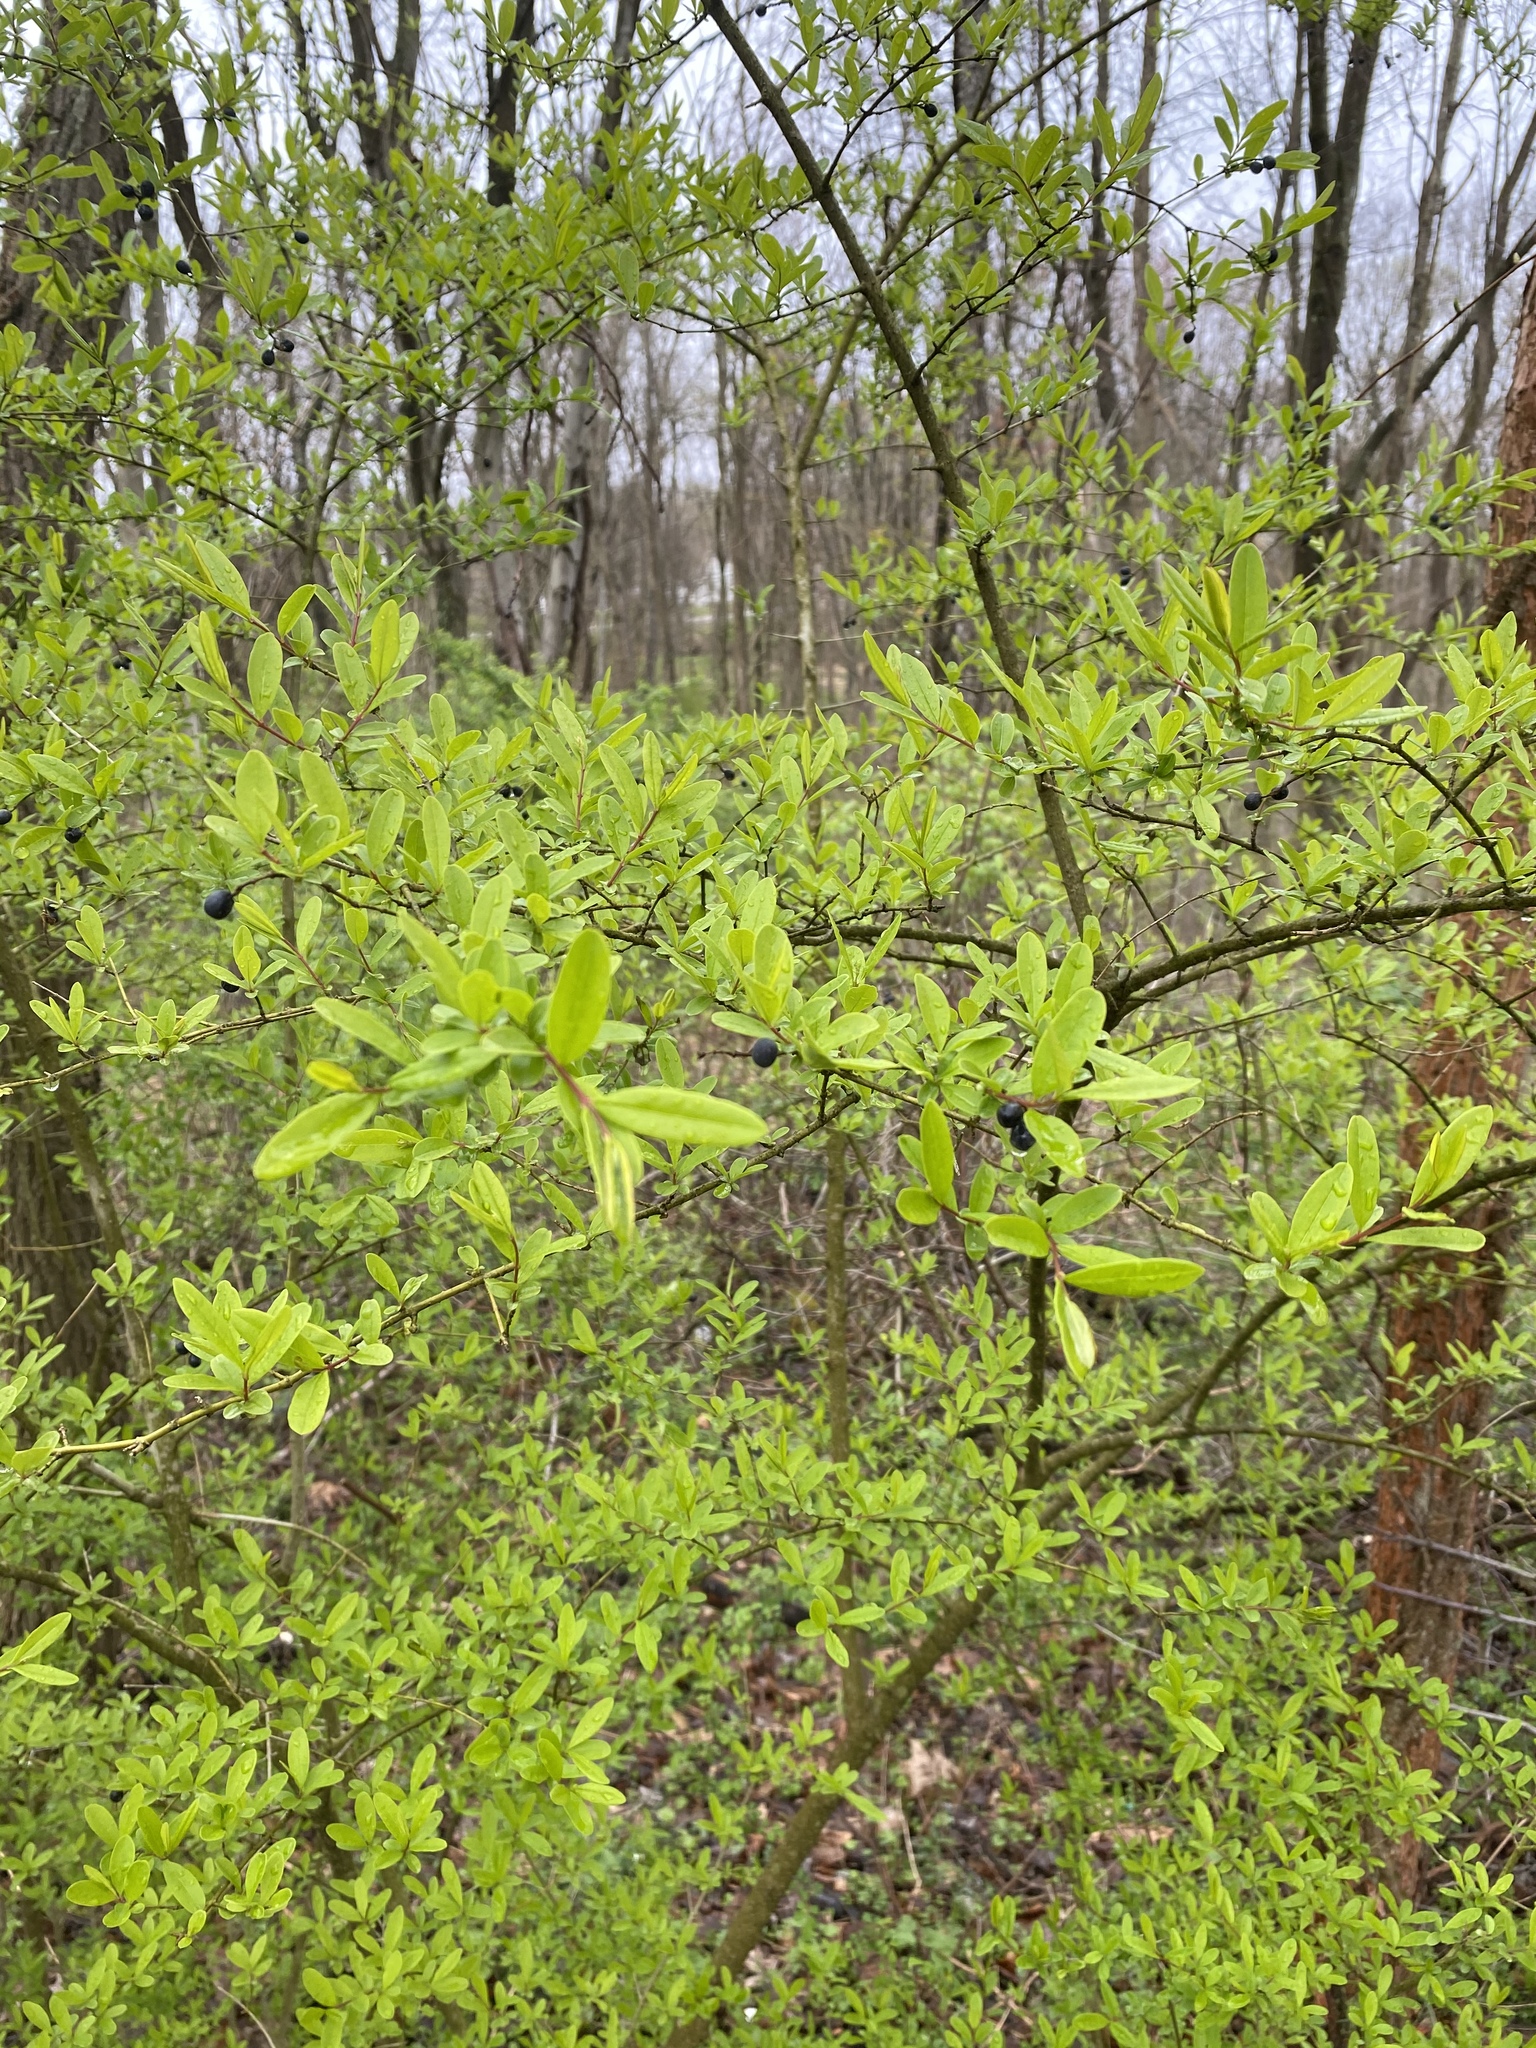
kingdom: Plantae
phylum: Tracheophyta
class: Magnoliopsida
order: Lamiales
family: Oleaceae
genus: Ligustrum
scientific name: Ligustrum obtusifolium
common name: Border privet
